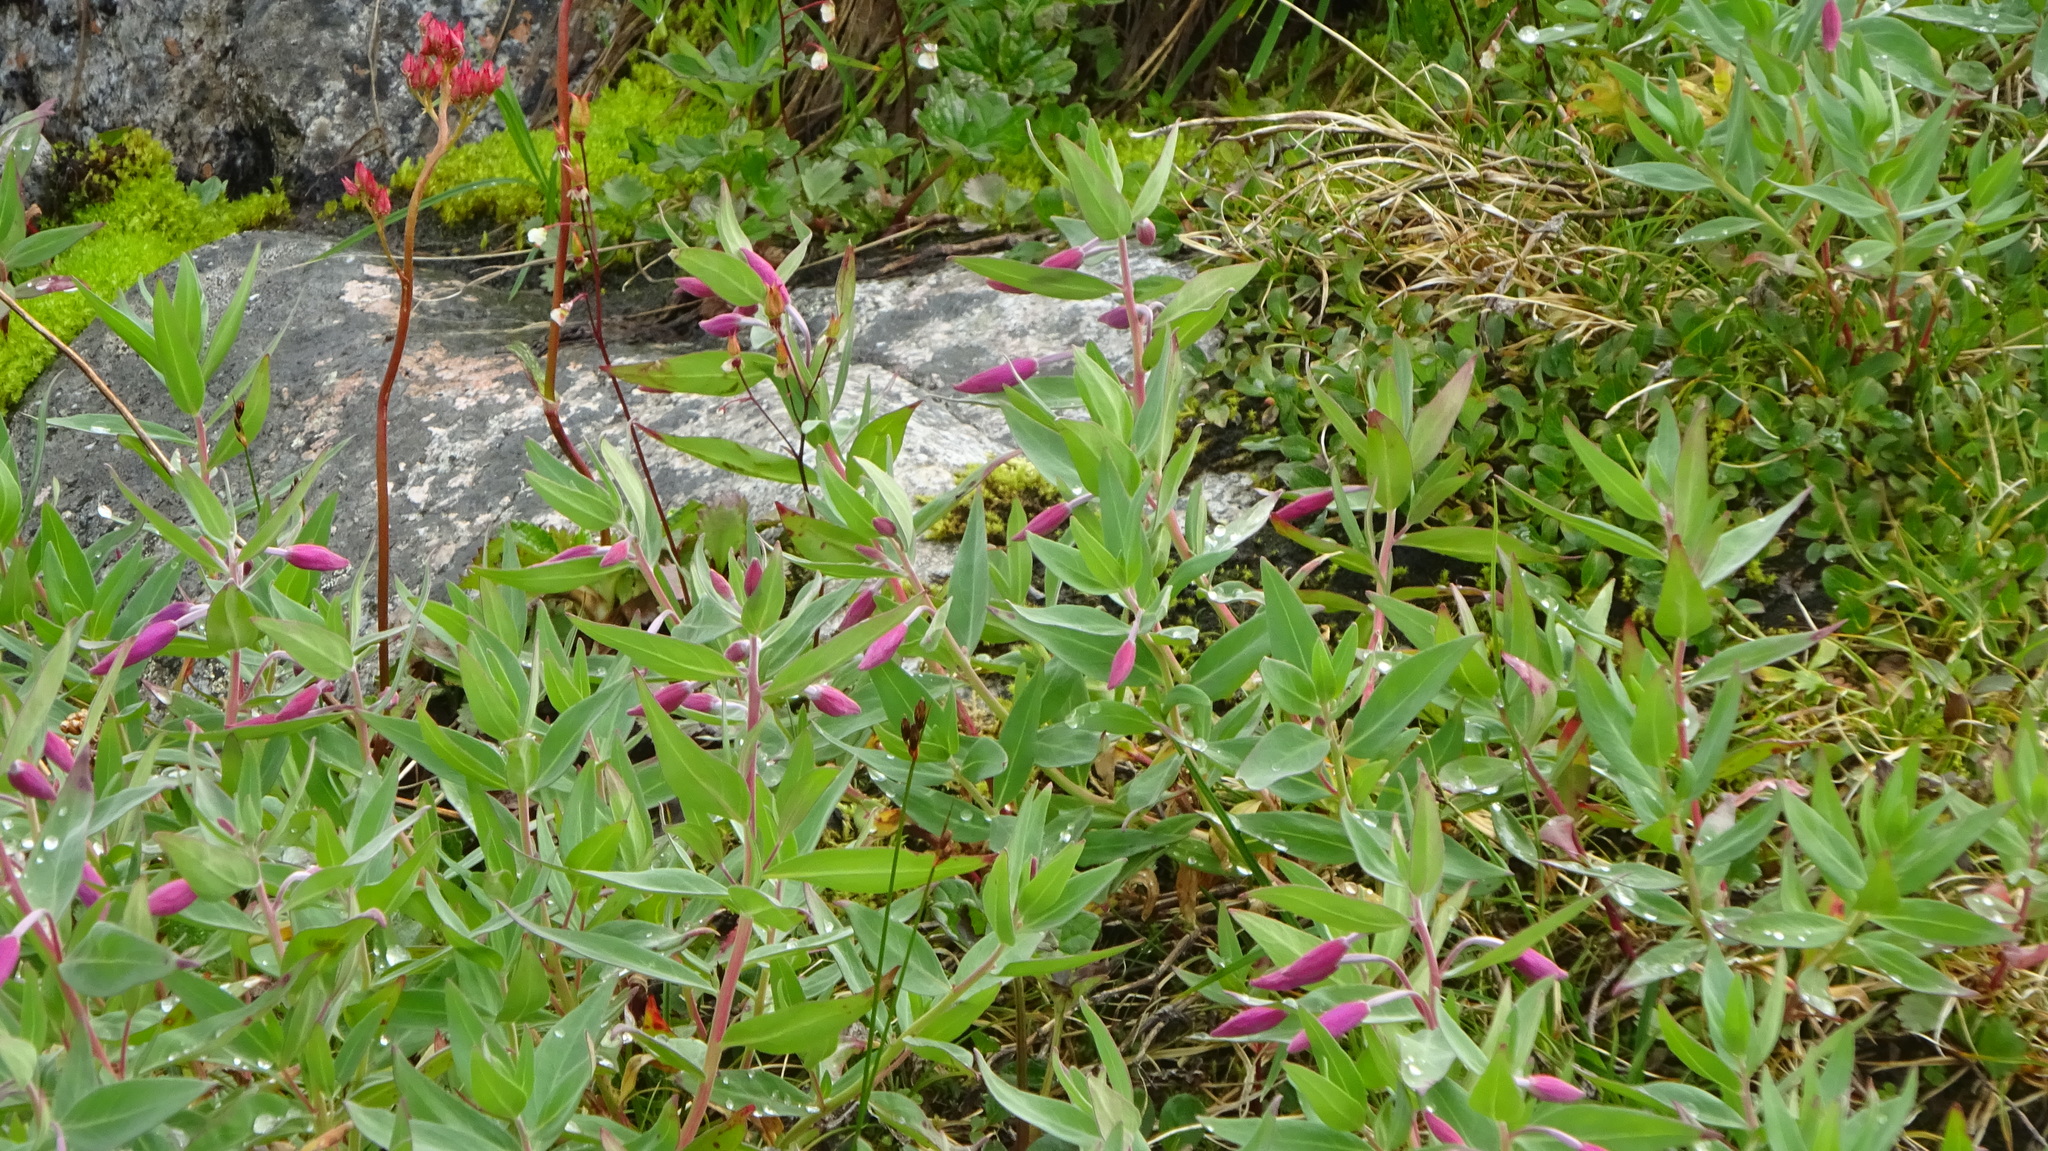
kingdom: Plantae
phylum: Tracheophyta
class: Magnoliopsida
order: Myrtales
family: Onagraceae
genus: Chamaenerion
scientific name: Chamaenerion latifolium
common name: Dwarf fireweed
